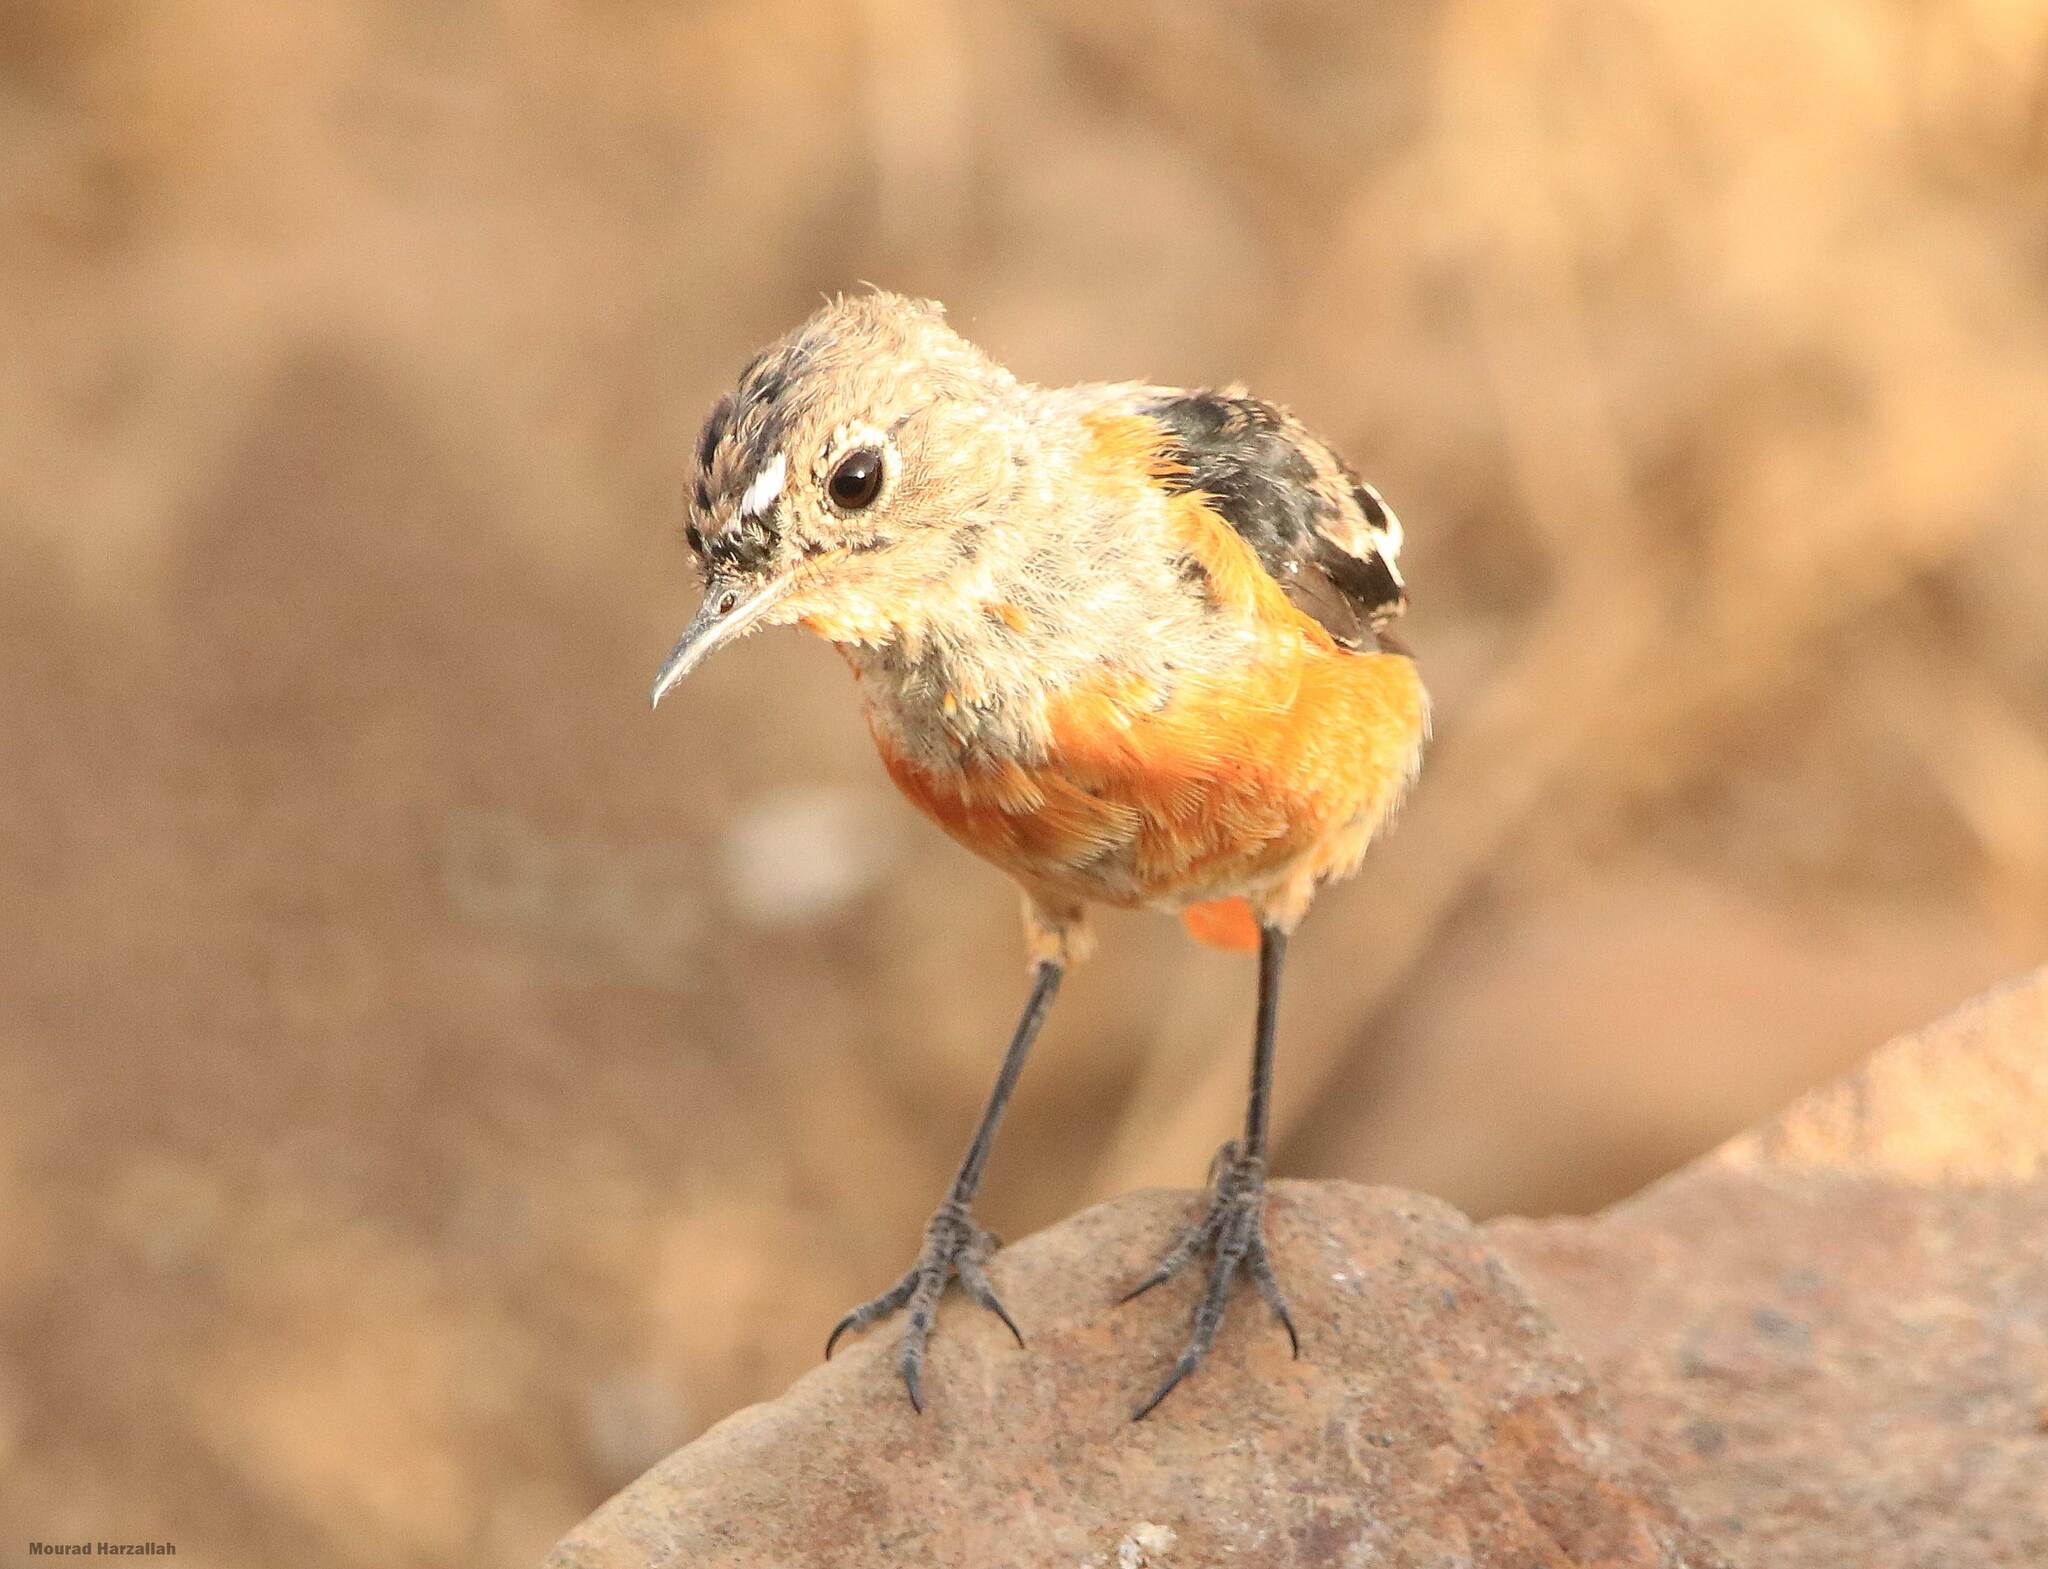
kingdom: Animalia
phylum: Chordata
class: Aves
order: Passeriformes
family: Muscicapidae
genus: Phoenicurus
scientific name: Phoenicurus moussieri
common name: Moussier's redstart
